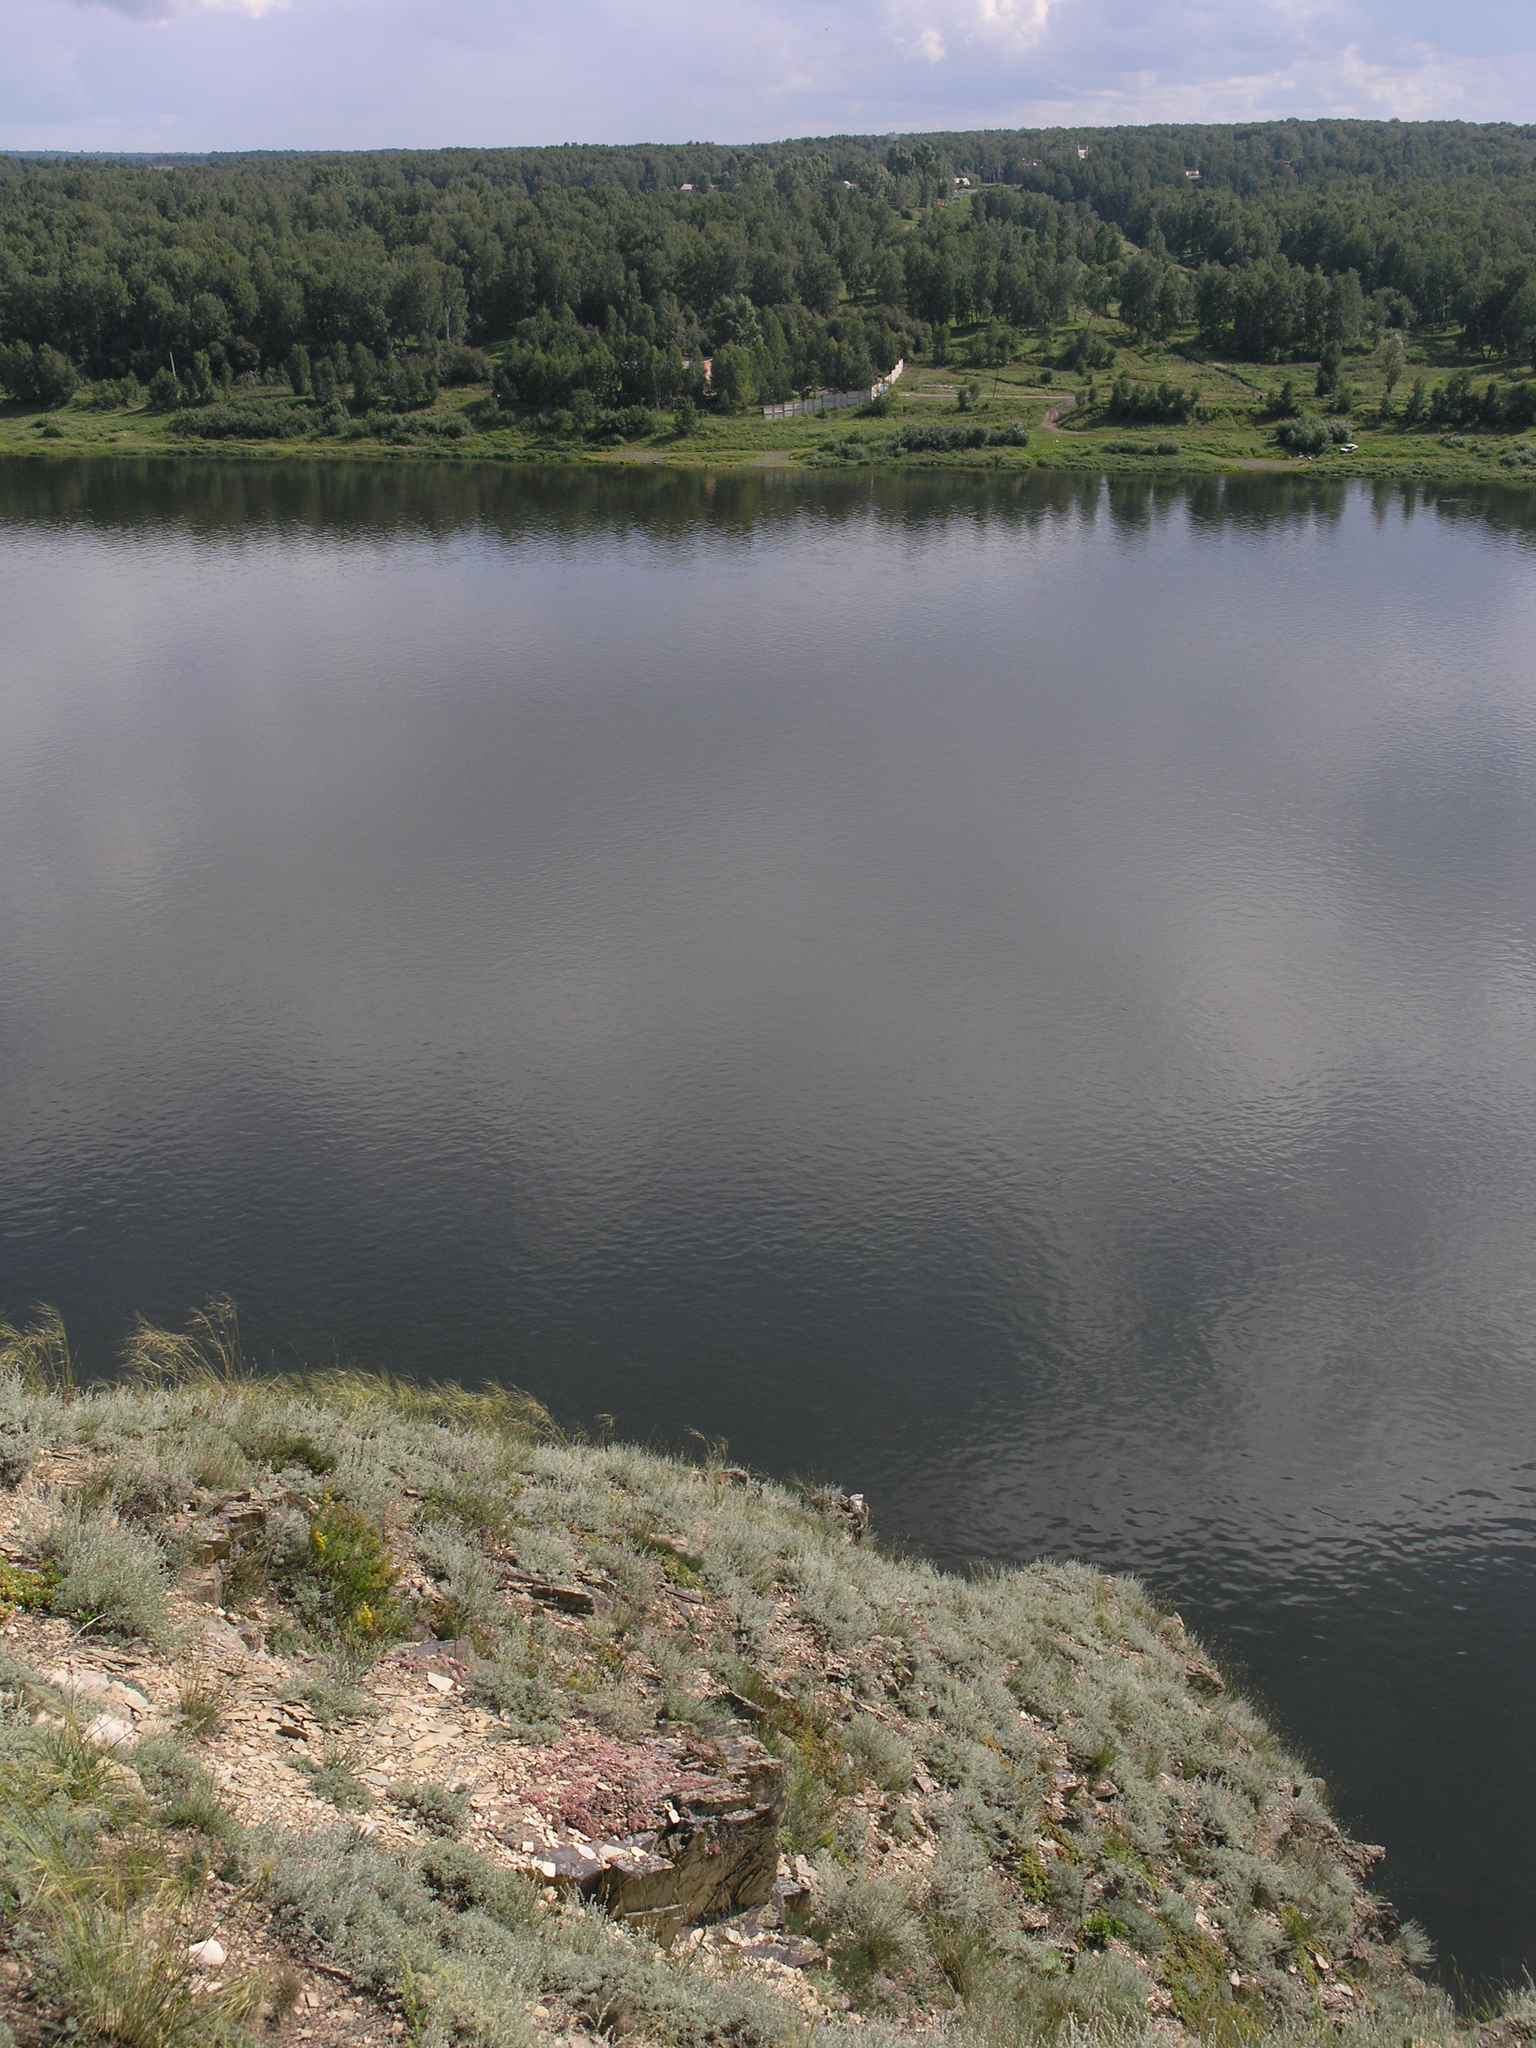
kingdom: Plantae
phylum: Tracheophyta
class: Magnoliopsida
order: Asterales
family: Asteraceae
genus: Artemisia
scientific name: Artemisia frigida
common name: Prairie sagewort
